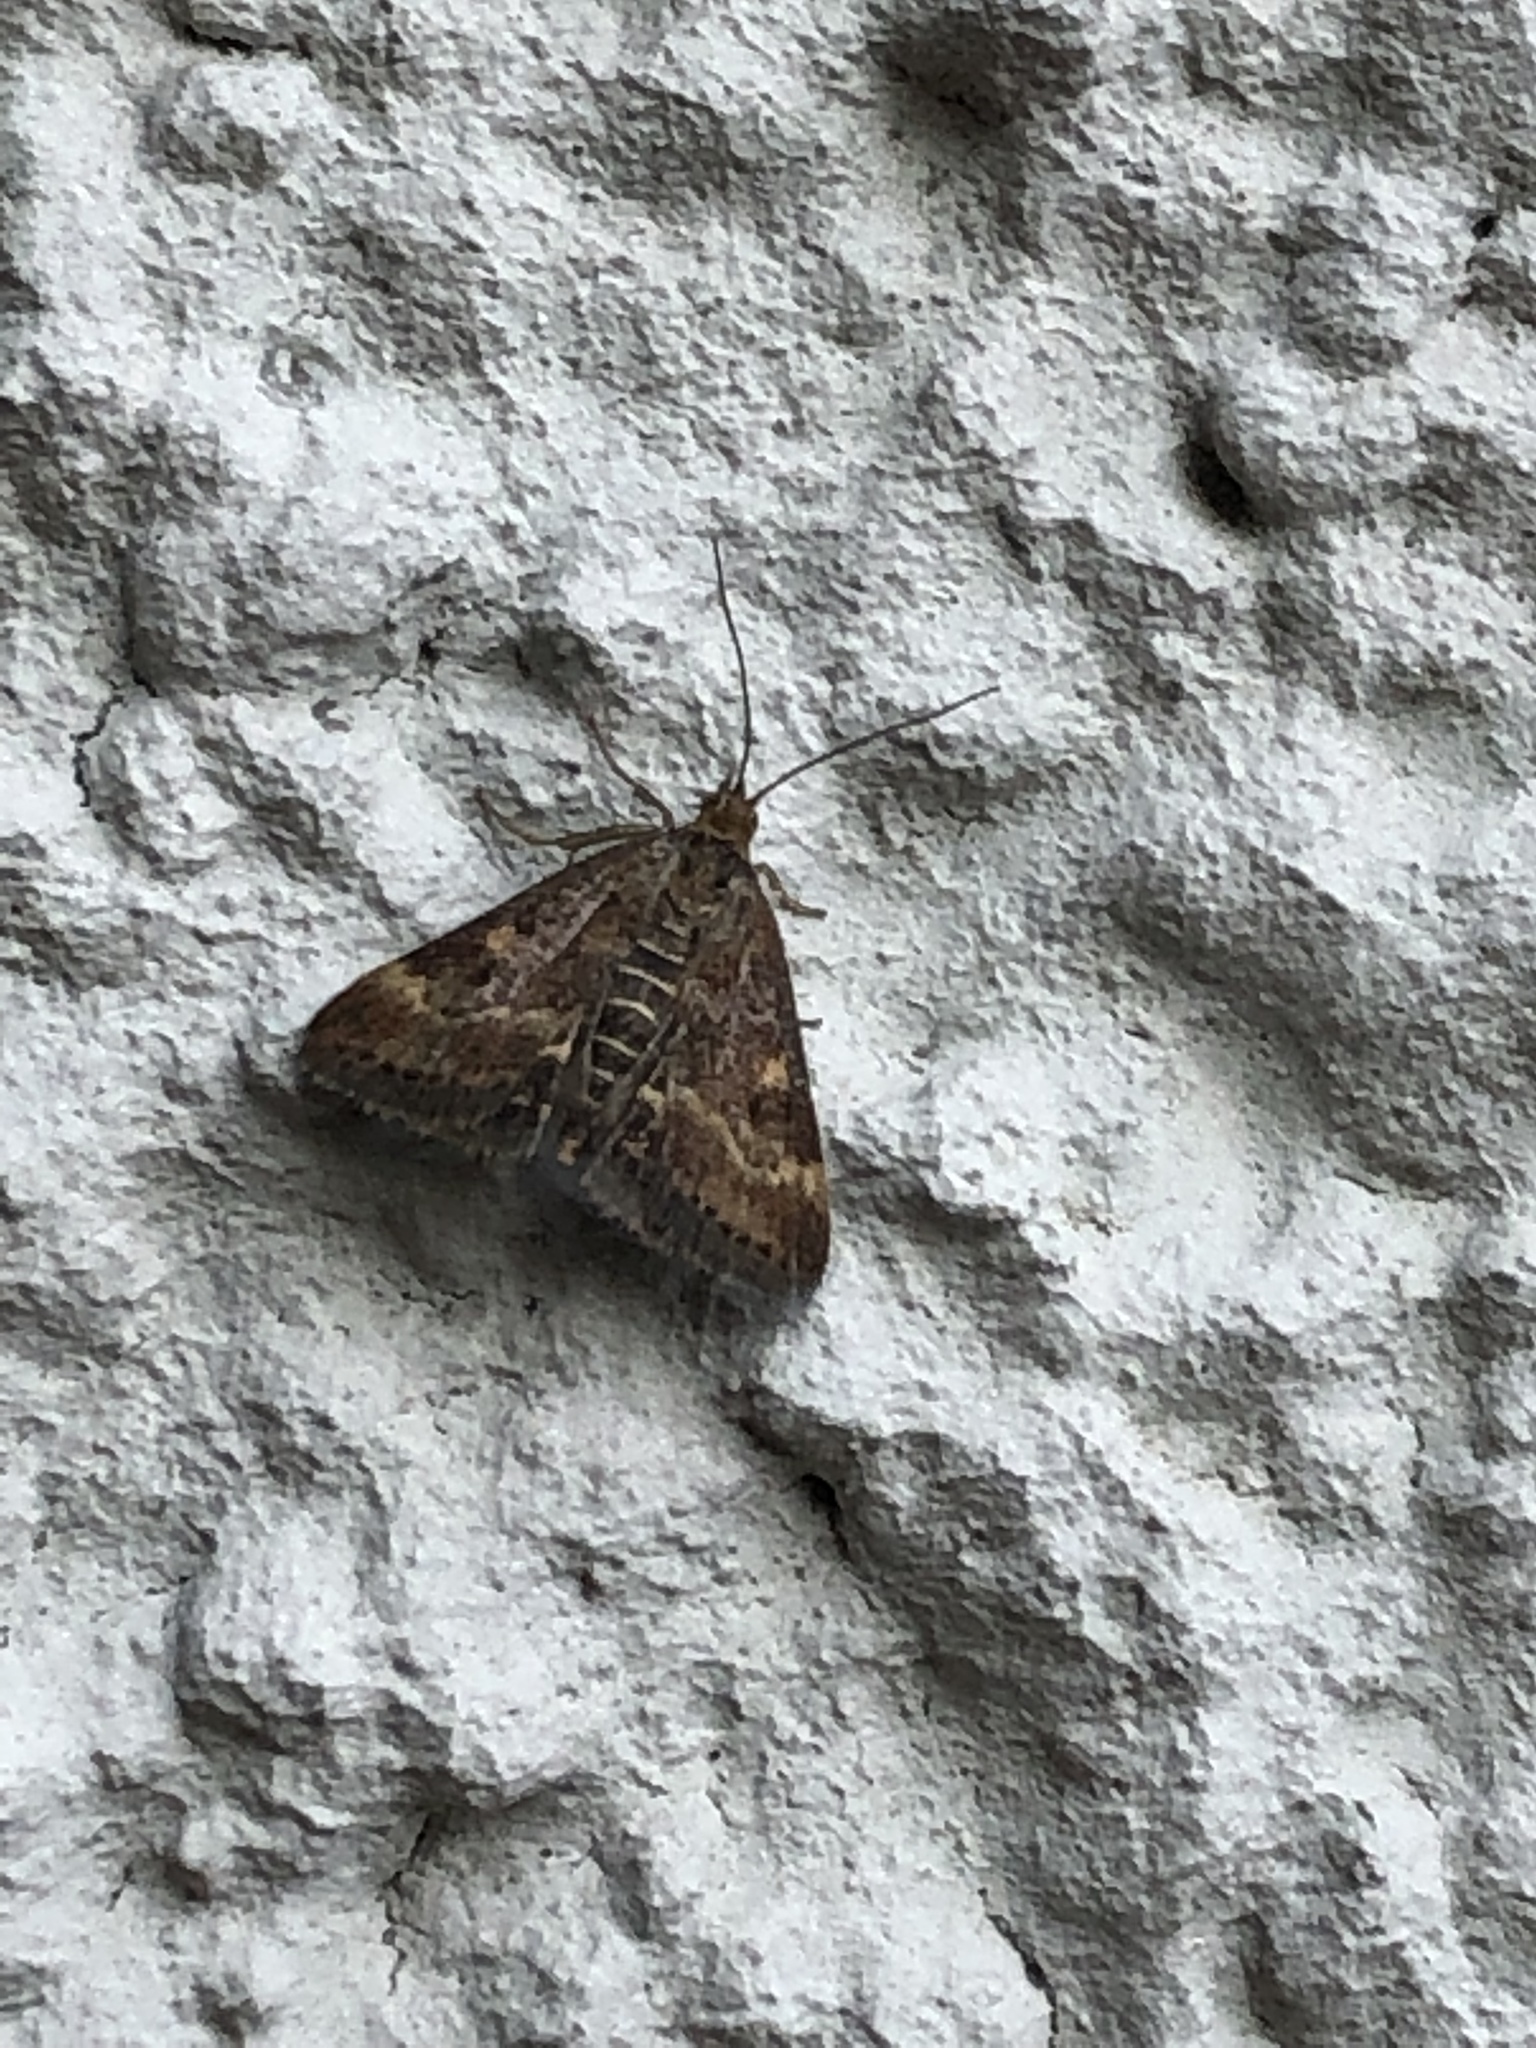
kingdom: Animalia
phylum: Arthropoda
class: Insecta
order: Lepidoptera
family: Crambidae
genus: Pyrausta
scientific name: Pyrausta despicata
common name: Straw-barred pearl
